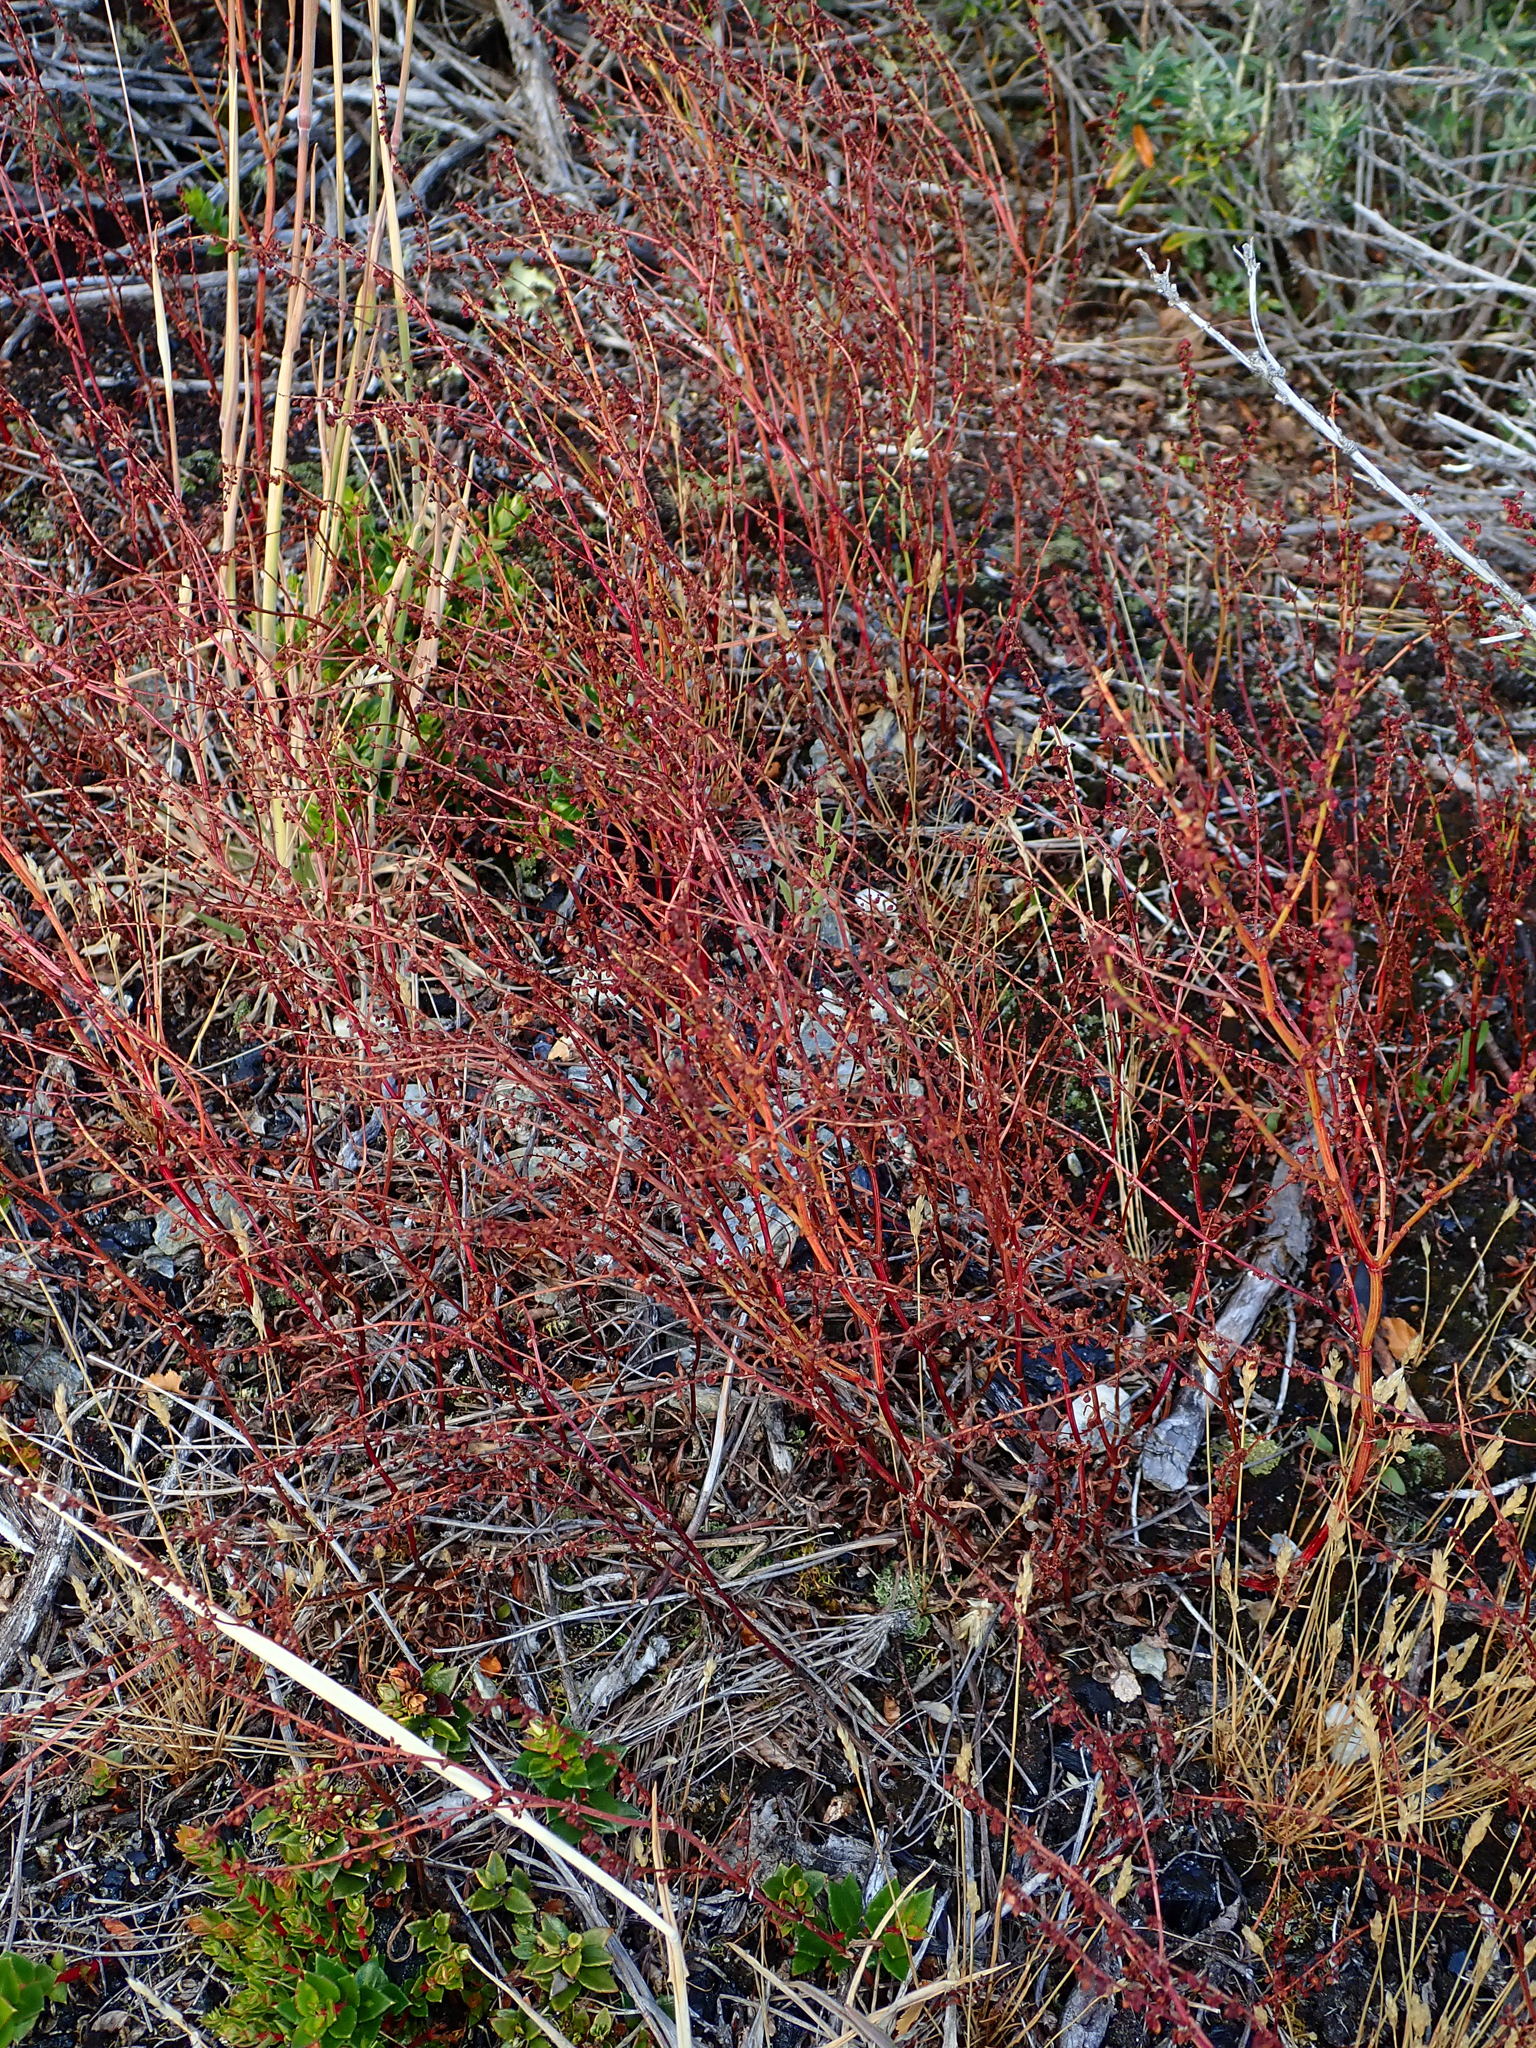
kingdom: Plantae
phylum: Tracheophyta
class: Magnoliopsida
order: Caryophyllales
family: Polygonaceae
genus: Rumex
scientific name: Rumex acetosella
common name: Common sheep sorrel
